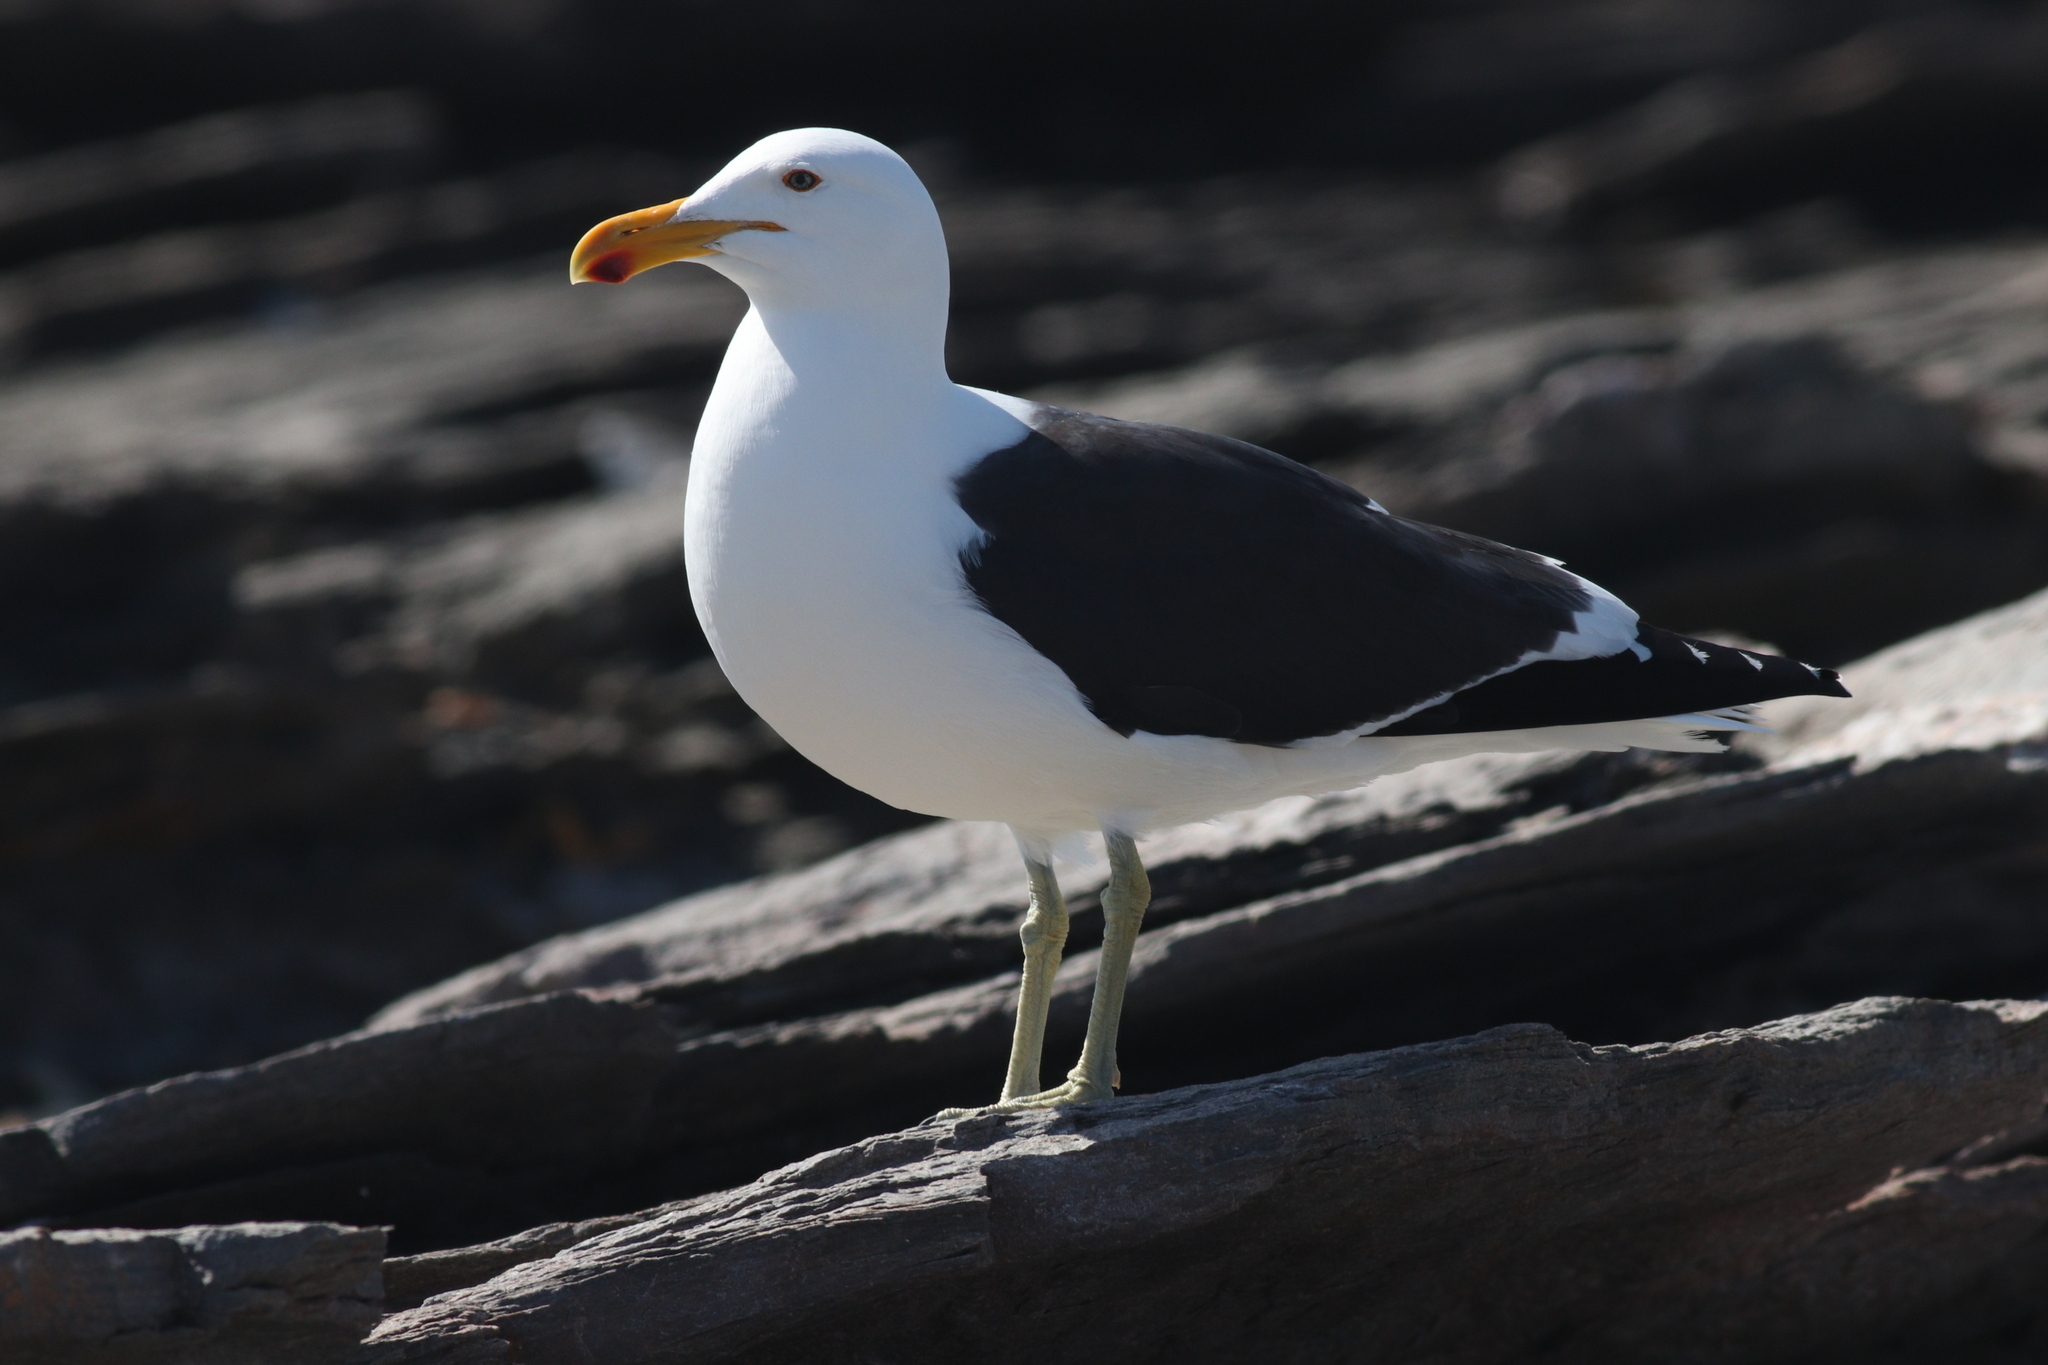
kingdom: Animalia
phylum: Chordata
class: Aves
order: Charadriiformes
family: Laridae
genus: Larus
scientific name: Larus dominicanus
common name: Kelp gull
